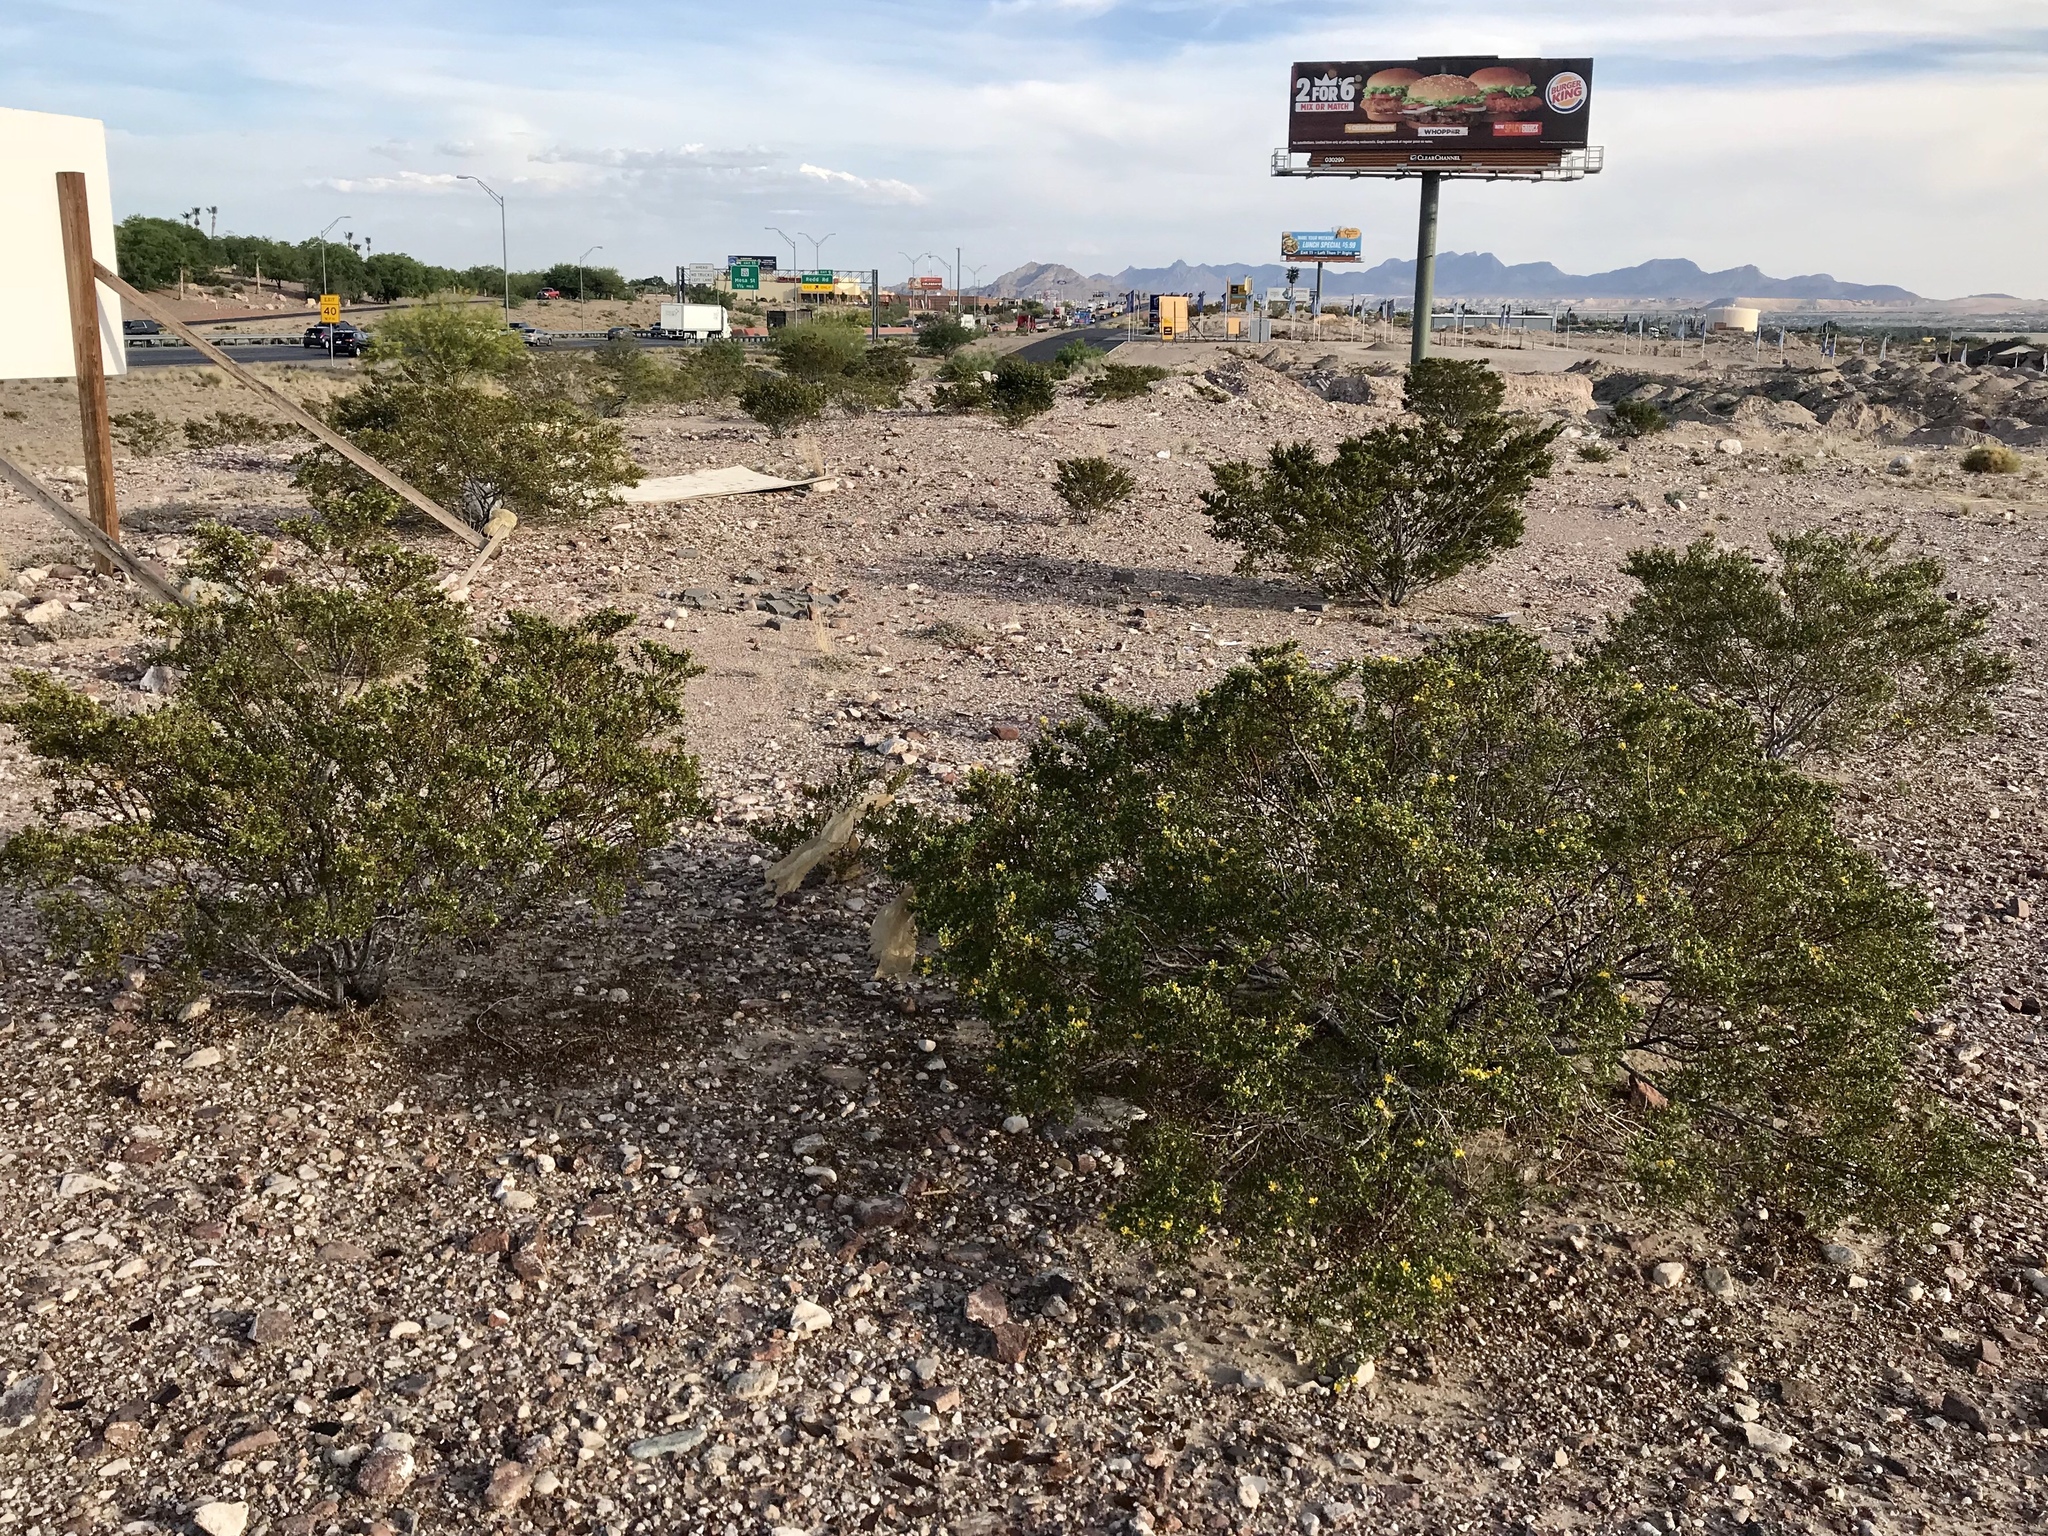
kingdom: Plantae
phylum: Tracheophyta
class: Magnoliopsida
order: Zygophyllales
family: Zygophyllaceae
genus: Larrea
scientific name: Larrea tridentata
